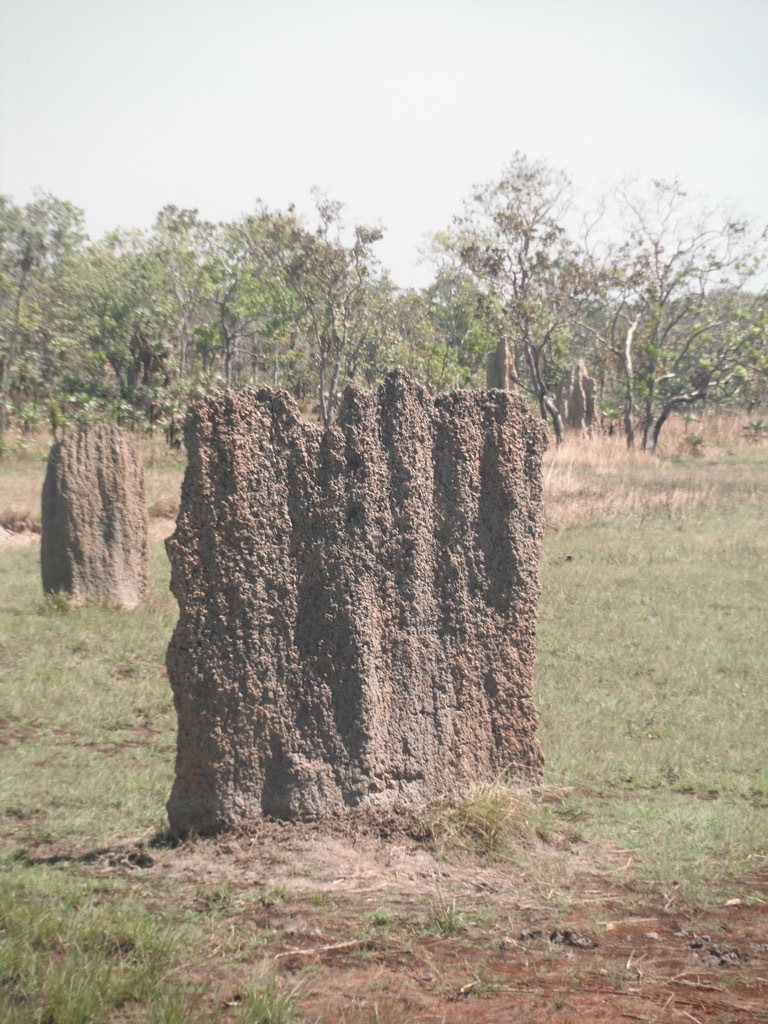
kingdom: Animalia
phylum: Arthropoda
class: Insecta
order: Blattodea
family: Termitidae
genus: Amitermes
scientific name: Amitermes meridionalis
